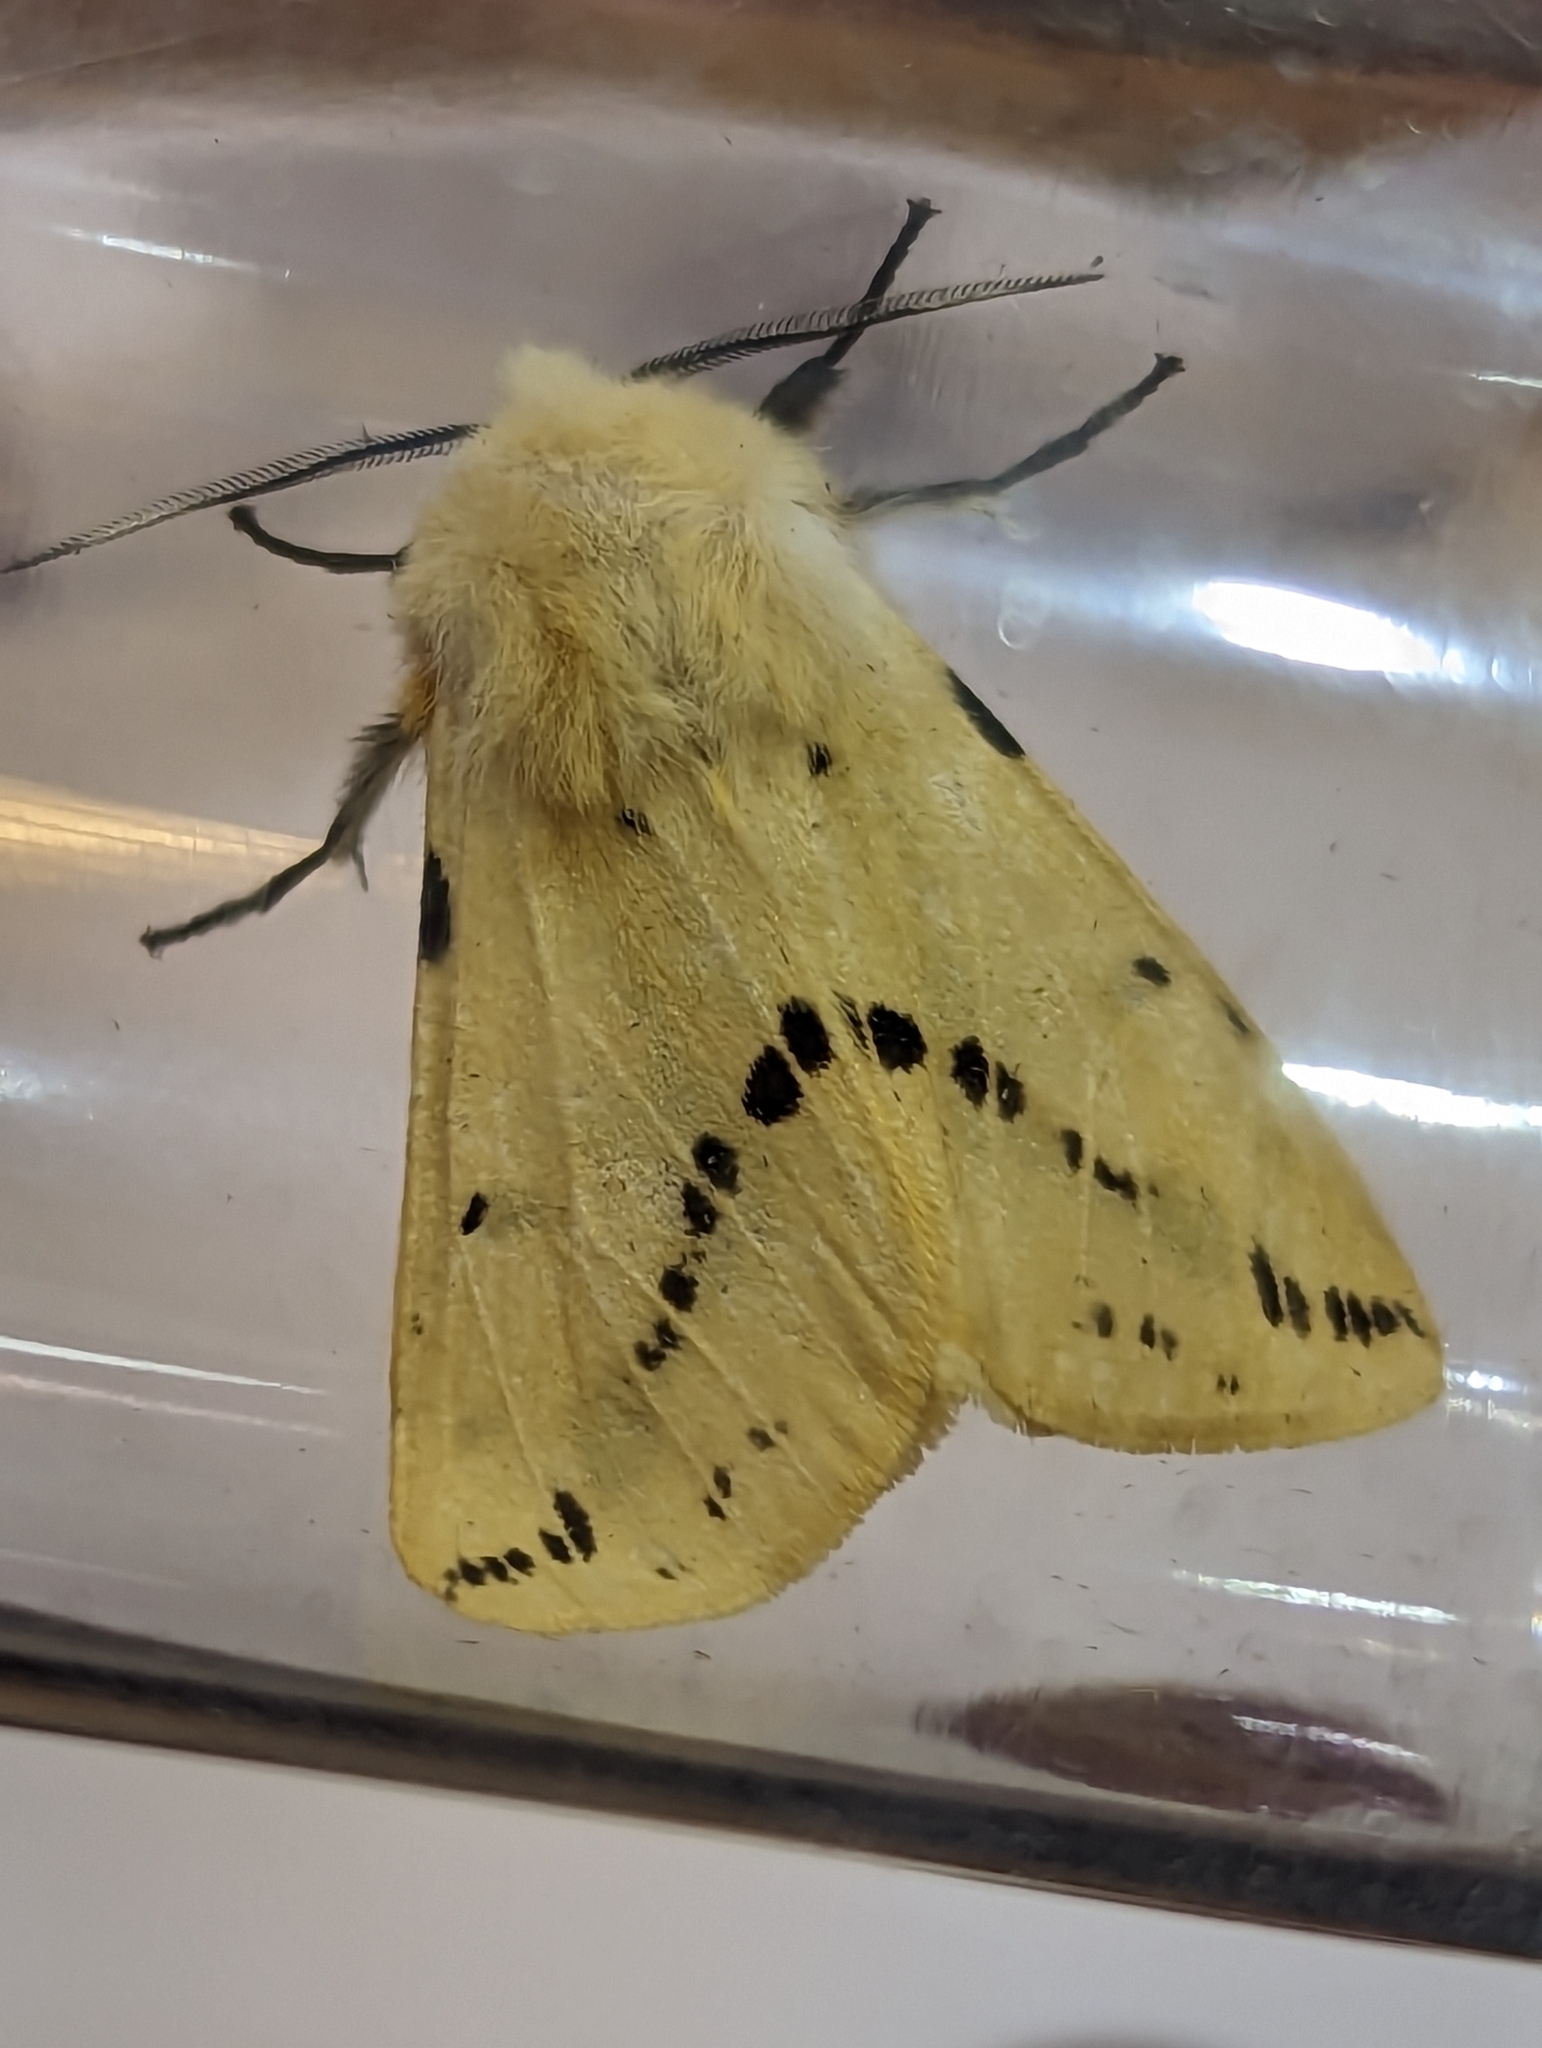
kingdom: Animalia
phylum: Arthropoda
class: Insecta
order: Lepidoptera
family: Erebidae
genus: Spilarctia
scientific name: Spilarctia lutea
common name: Buff ermine
